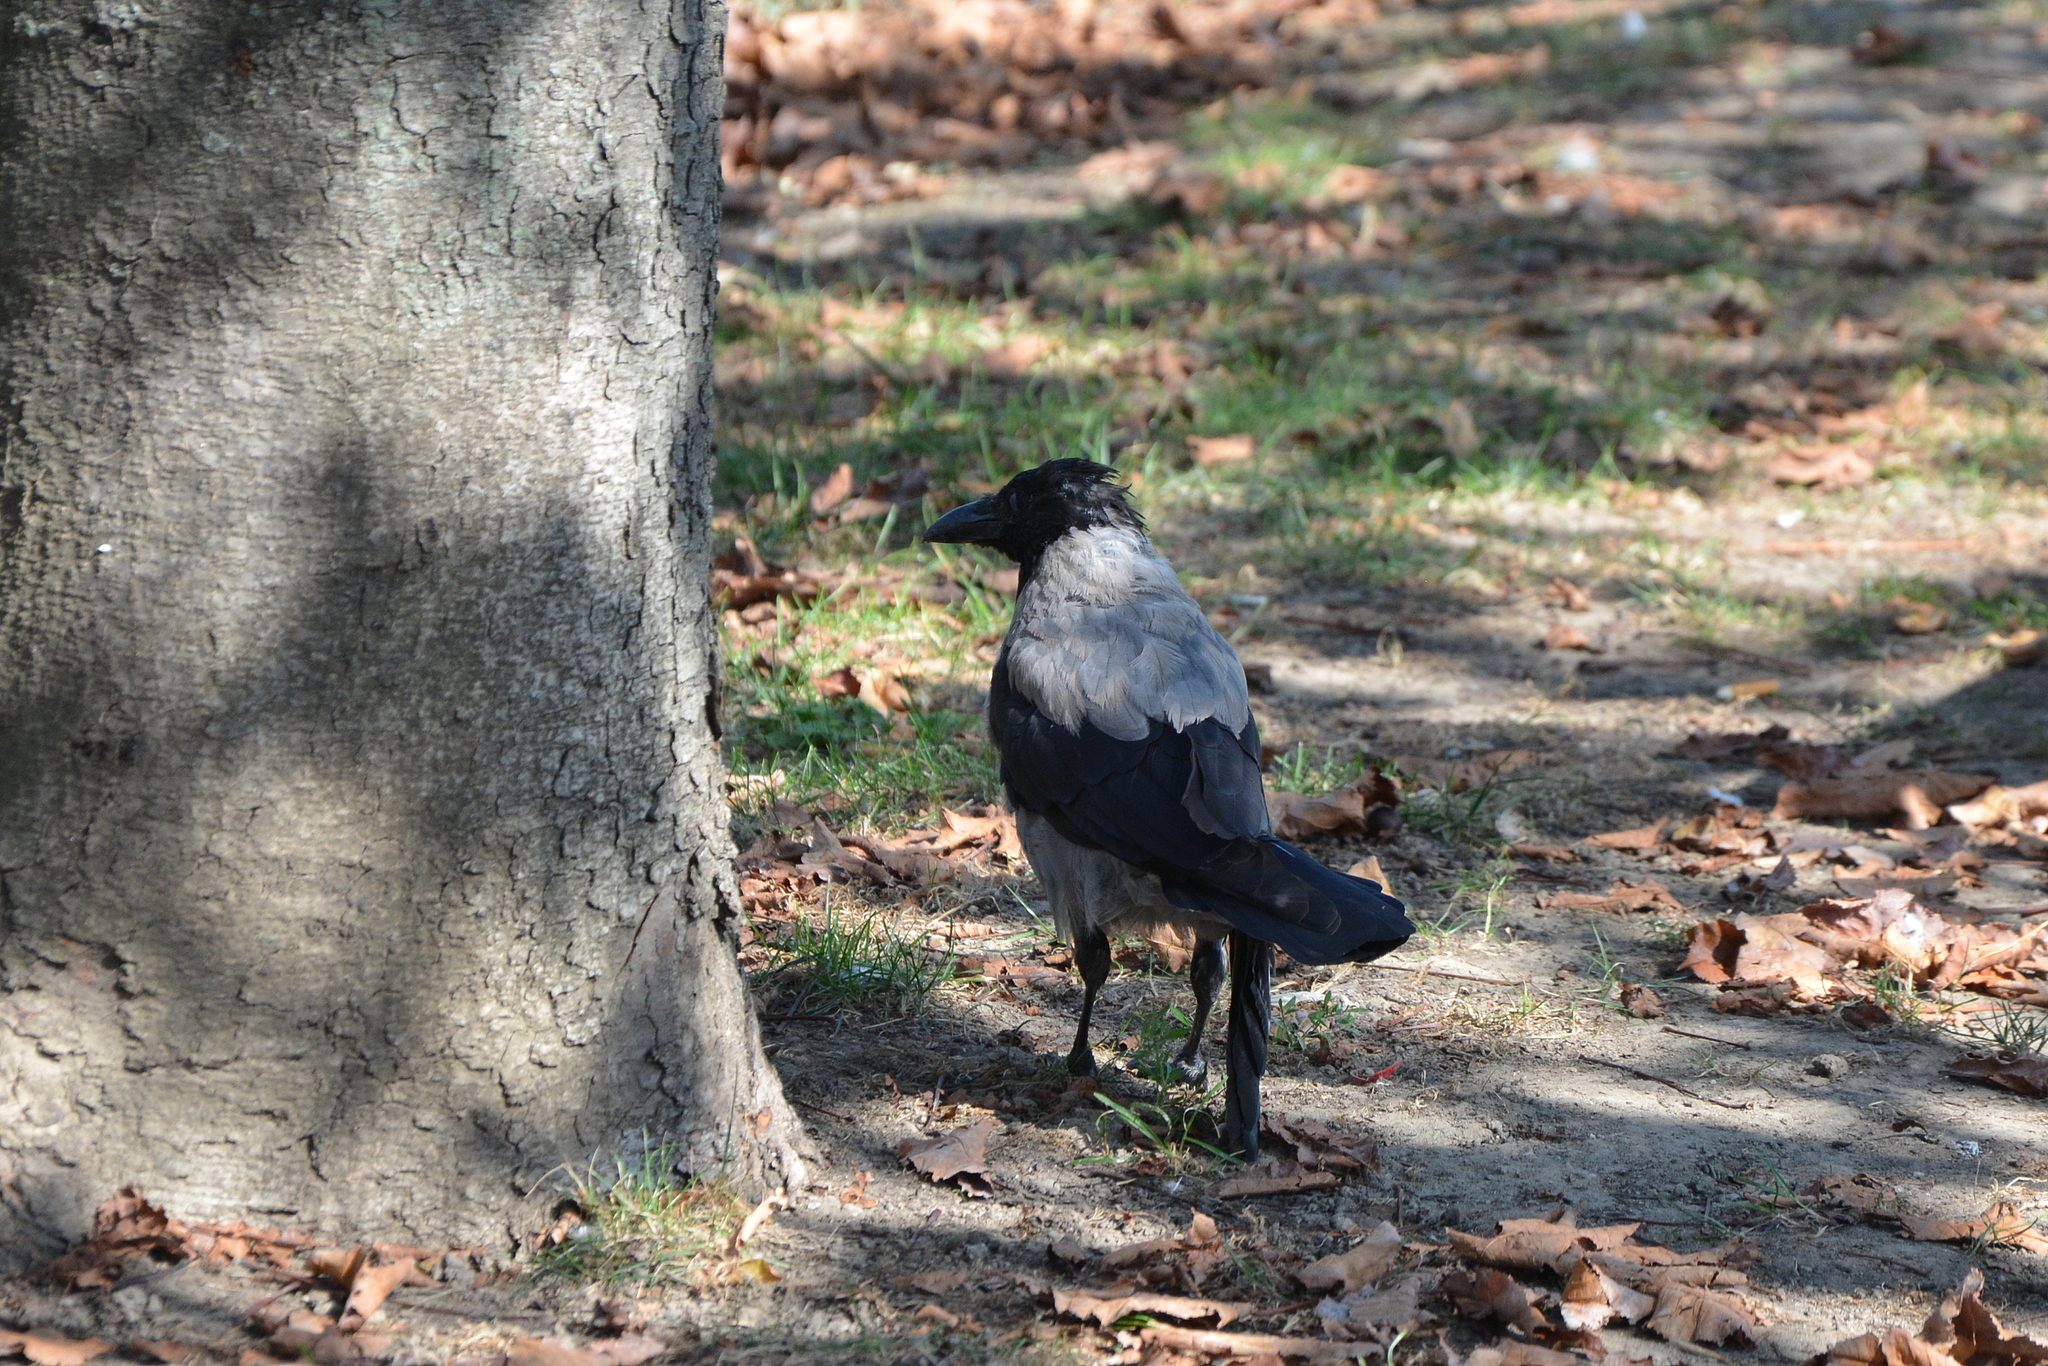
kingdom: Animalia
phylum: Chordata
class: Aves
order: Passeriformes
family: Corvidae
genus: Corvus
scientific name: Corvus cornix
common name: Hooded crow
